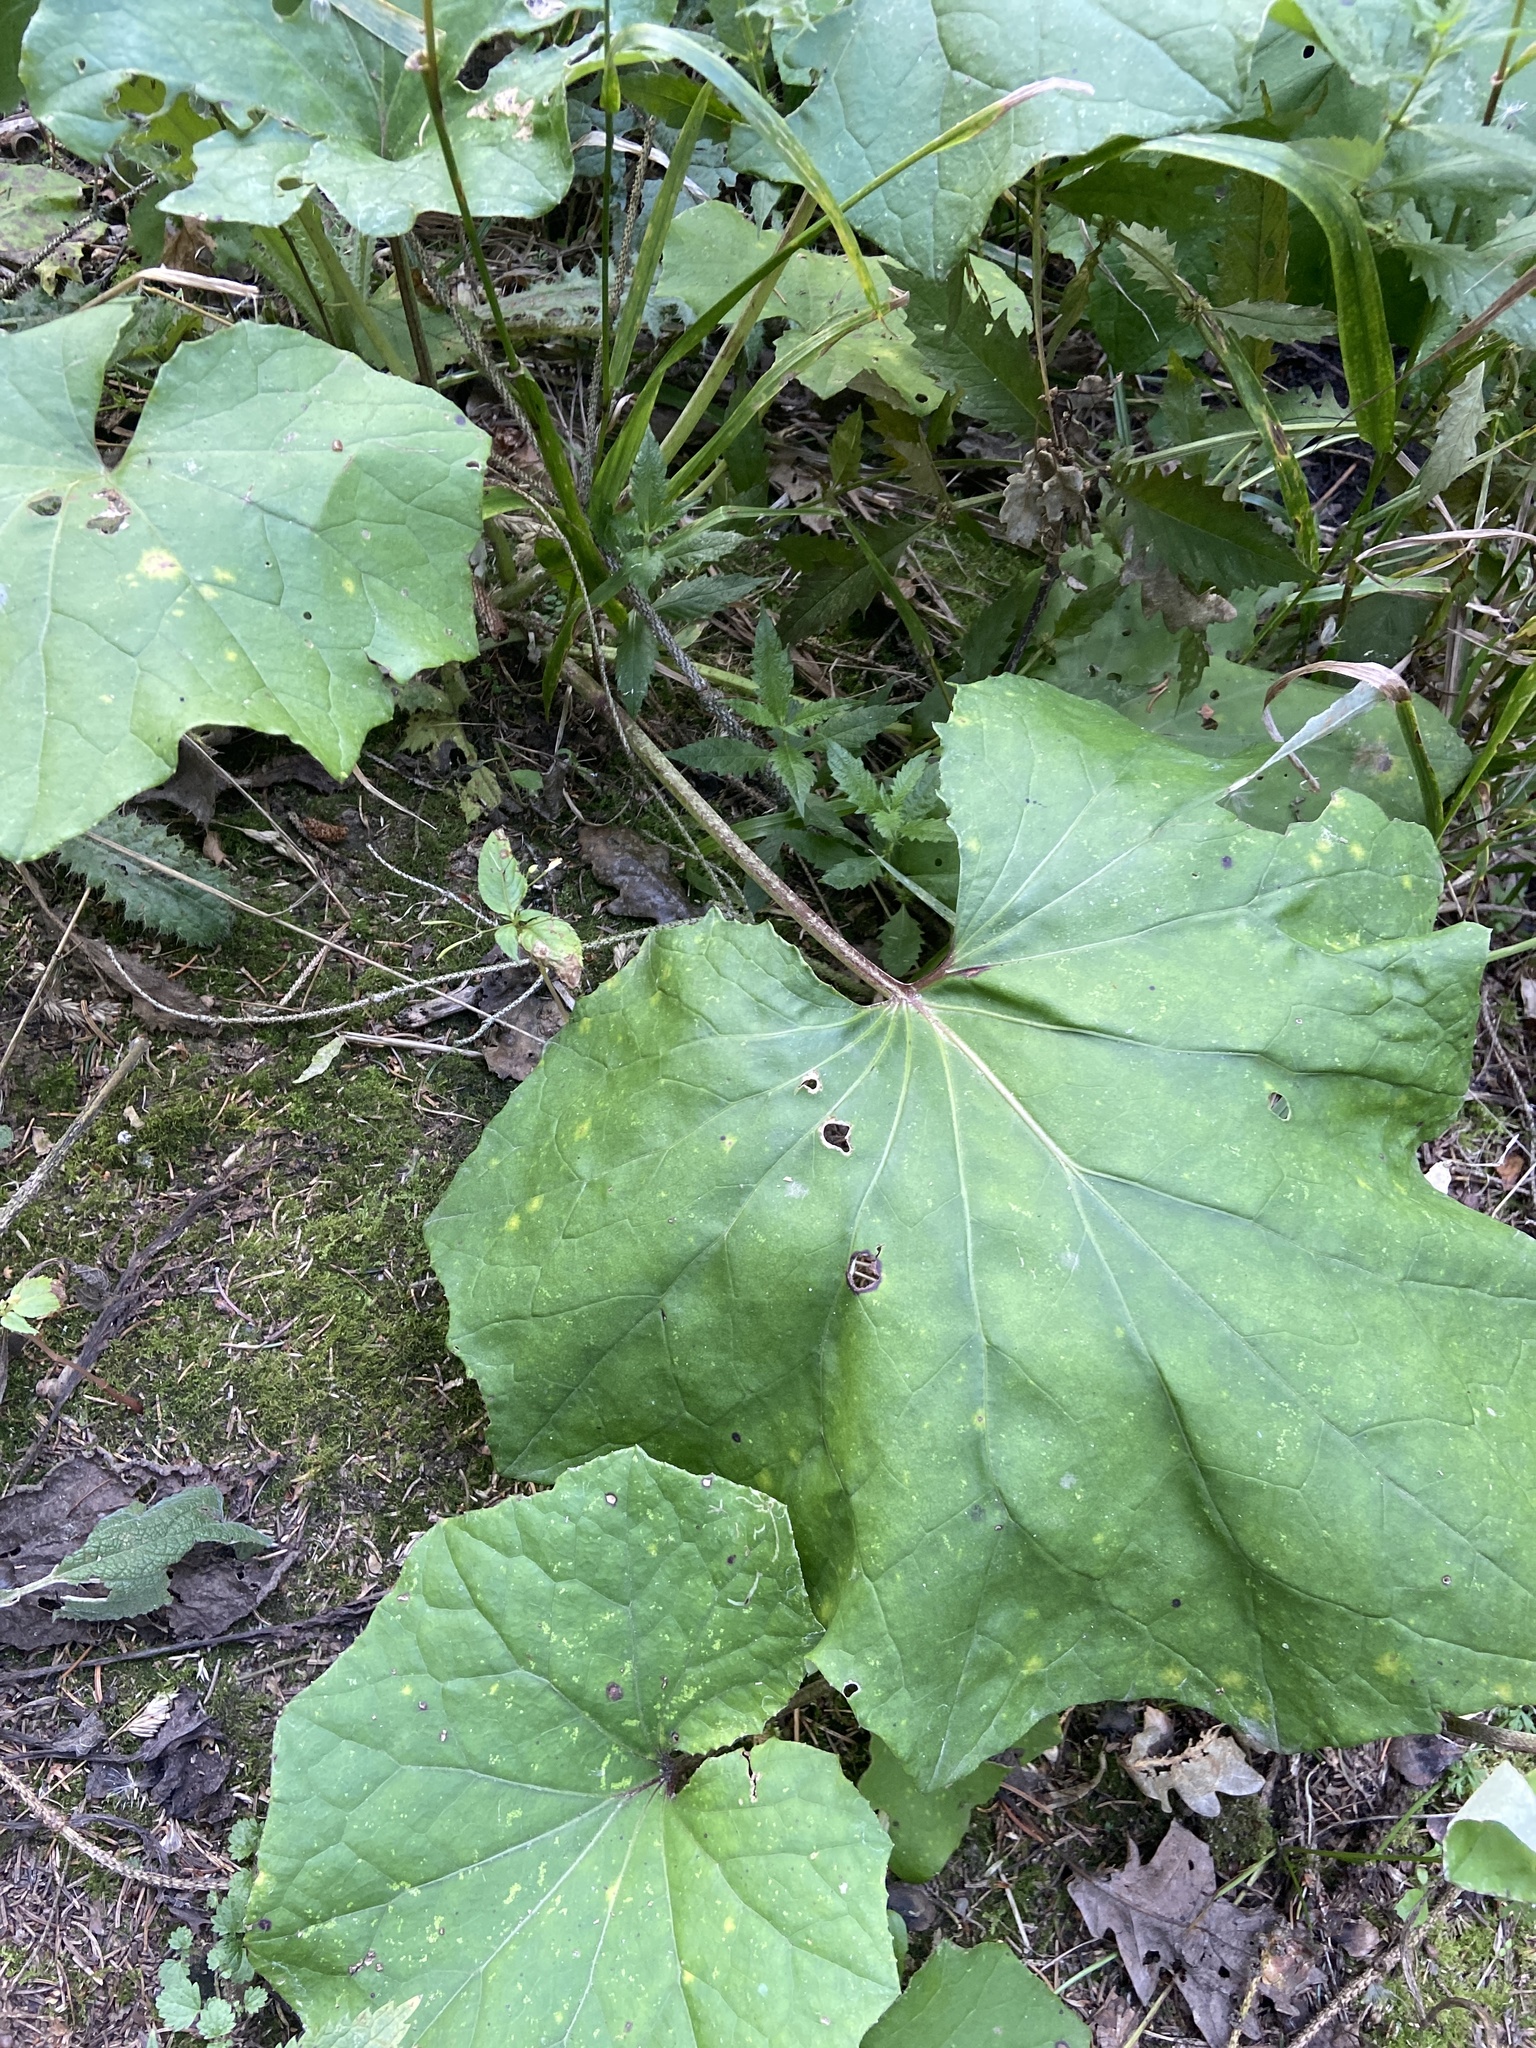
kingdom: Plantae
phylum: Tracheophyta
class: Magnoliopsida
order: Asterales
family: Asteraceae
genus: Tussilago
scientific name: Tussilago farfara
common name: Coltsfoot
